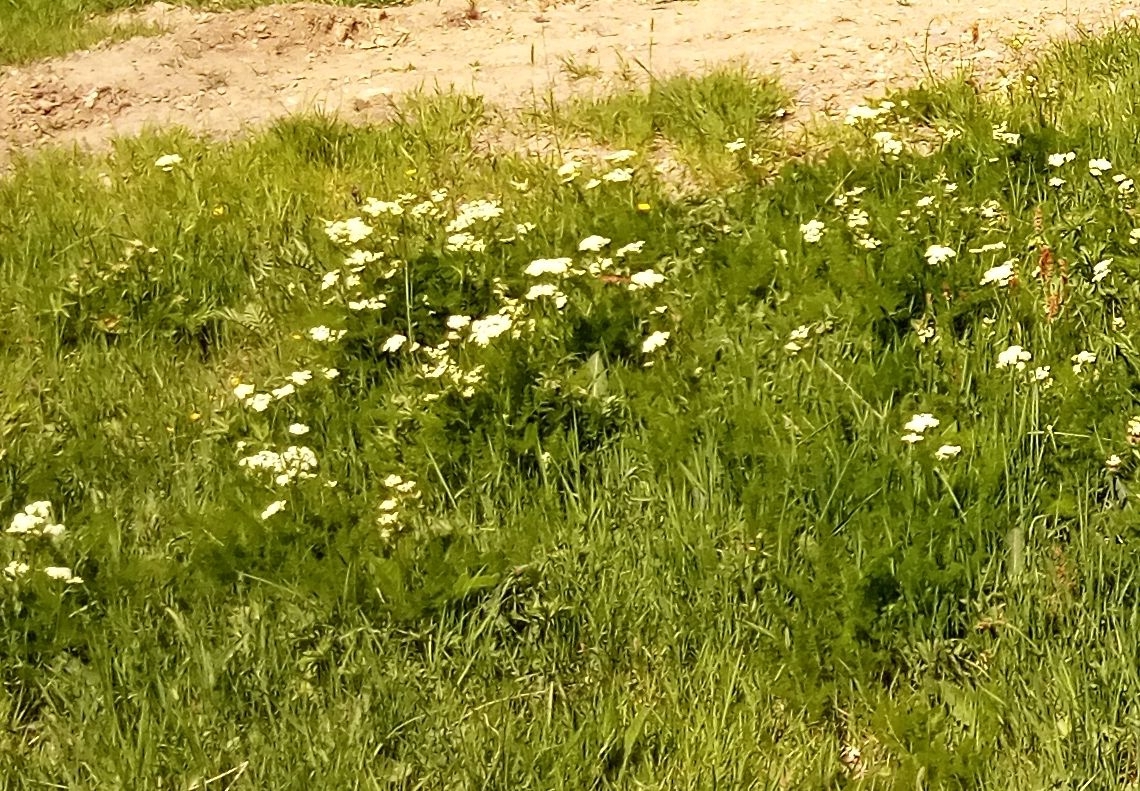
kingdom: Plantae
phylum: Tracheophyta
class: Magnoliopsida
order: Apiales
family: Apiaceae
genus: Meum
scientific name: Meum athamanticum
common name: Spignel
